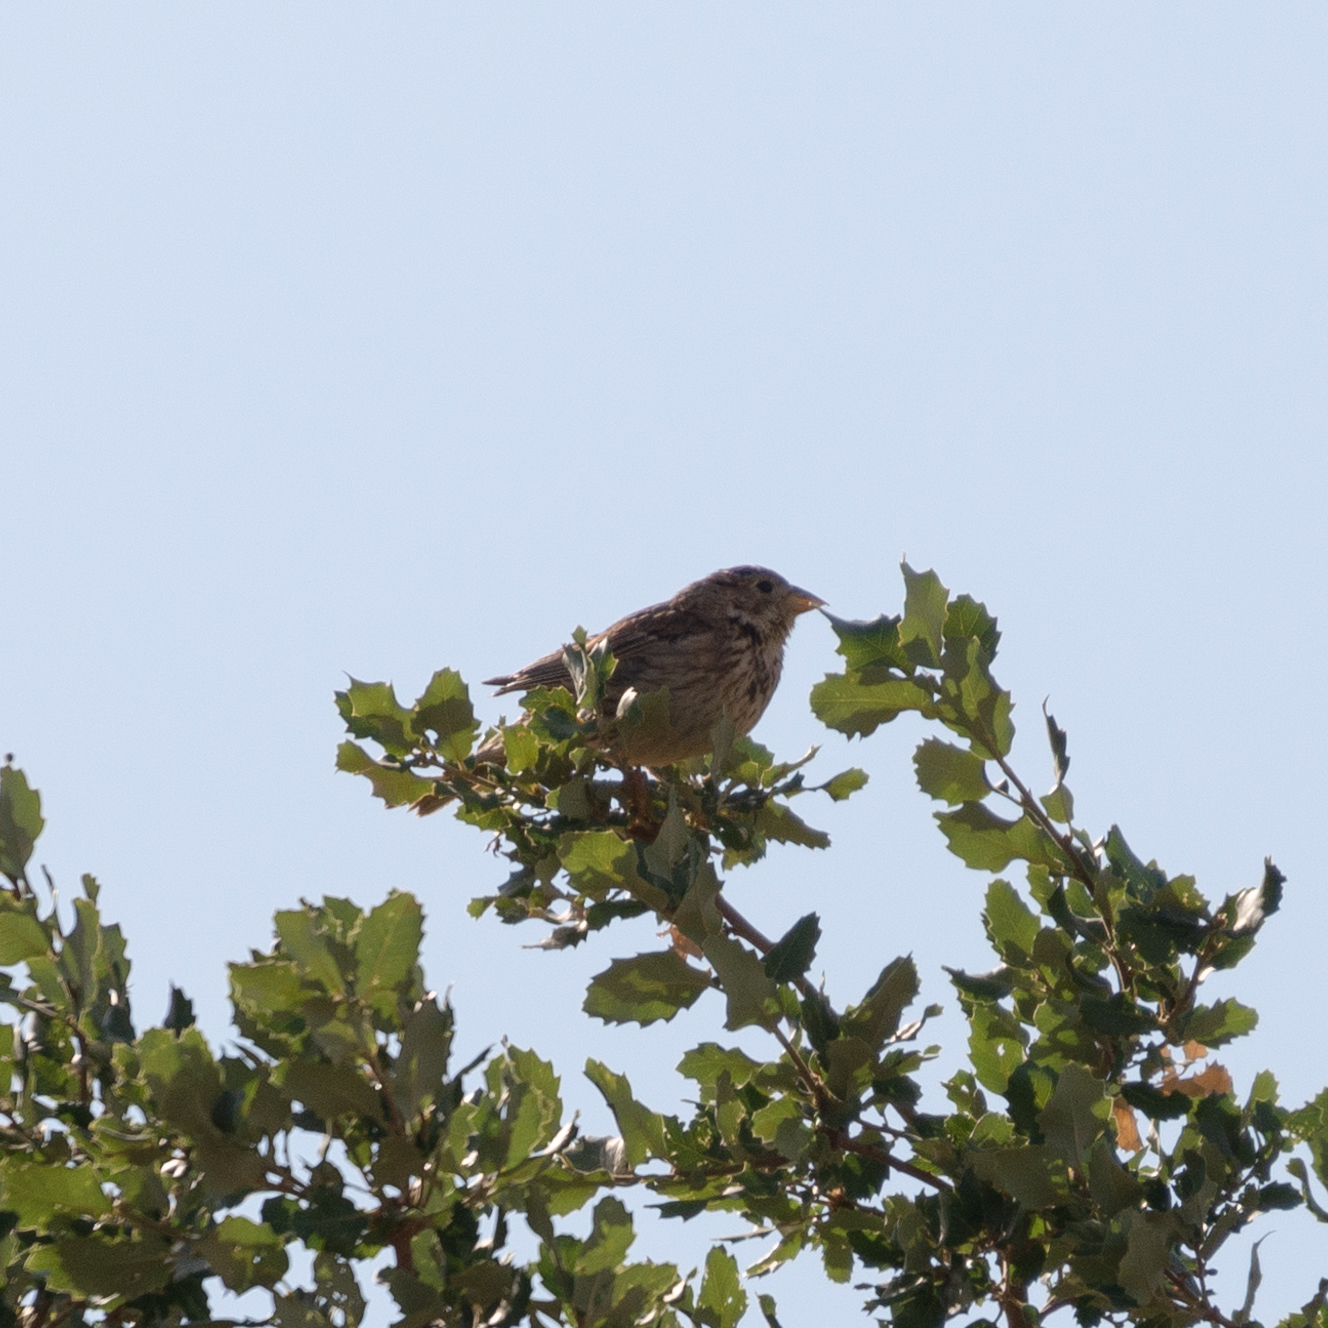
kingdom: Animalia
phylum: Chordata
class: Aves
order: Passeriformes
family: Emberizidae
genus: Emberiza
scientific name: Emberiza calandra
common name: Corn bunting
